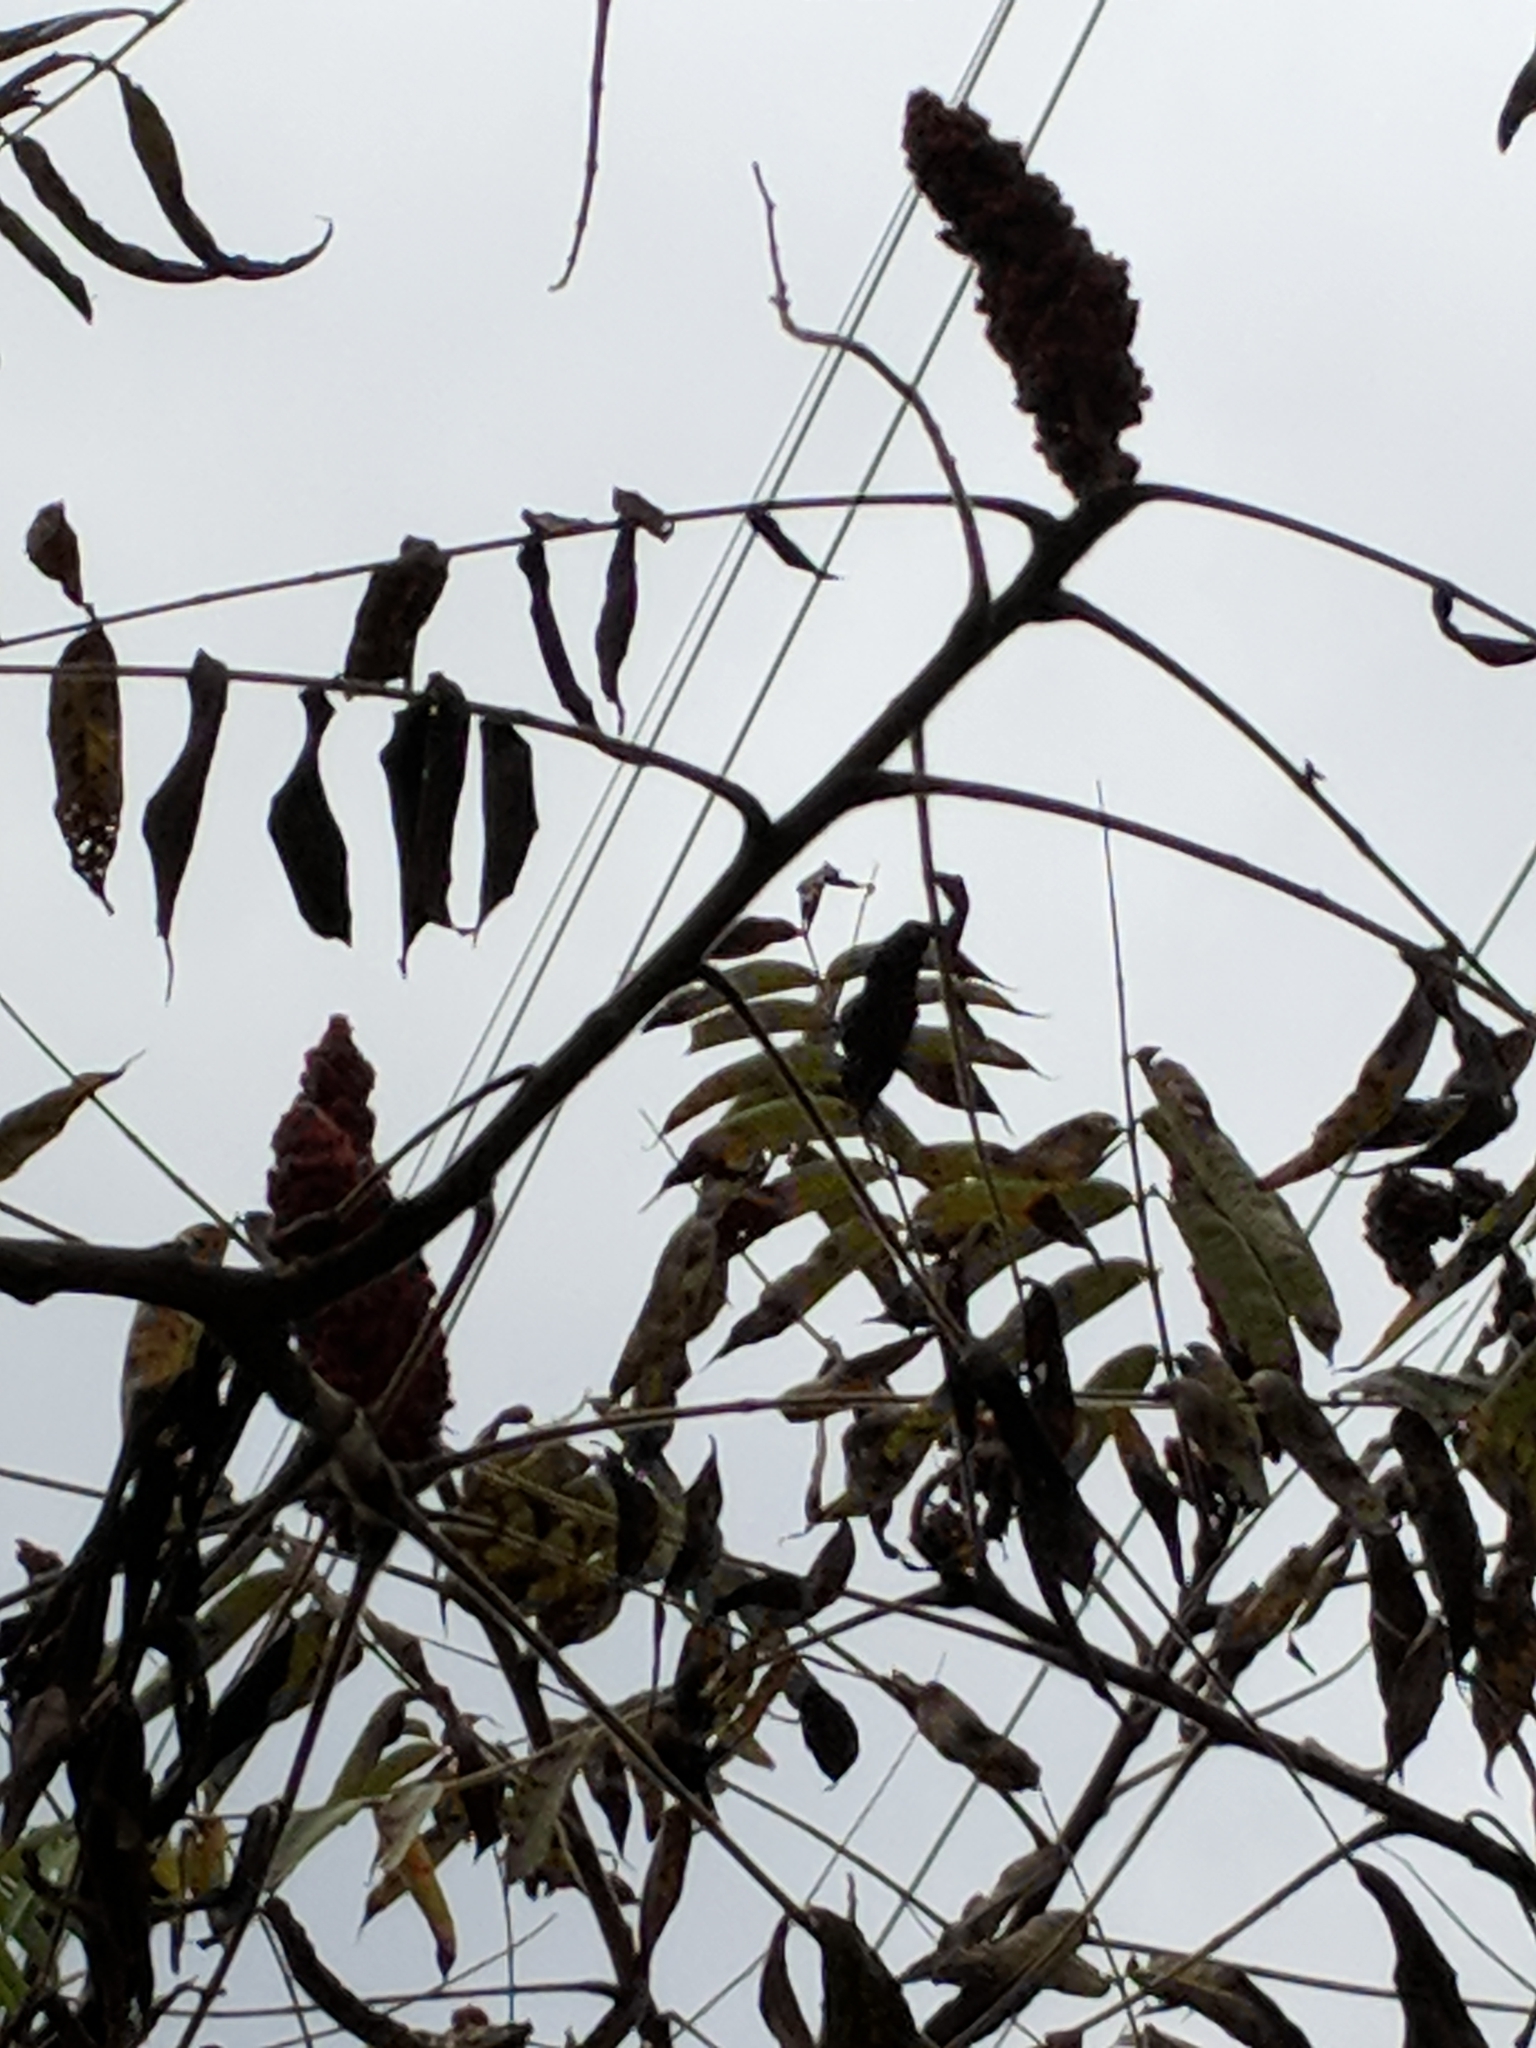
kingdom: Plantae
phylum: Tracheophyta
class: Magnoliopsida
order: Sapindales
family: Anacardiaceae
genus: Rhus
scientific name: Rhus typhina
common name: Staghorn sumac
